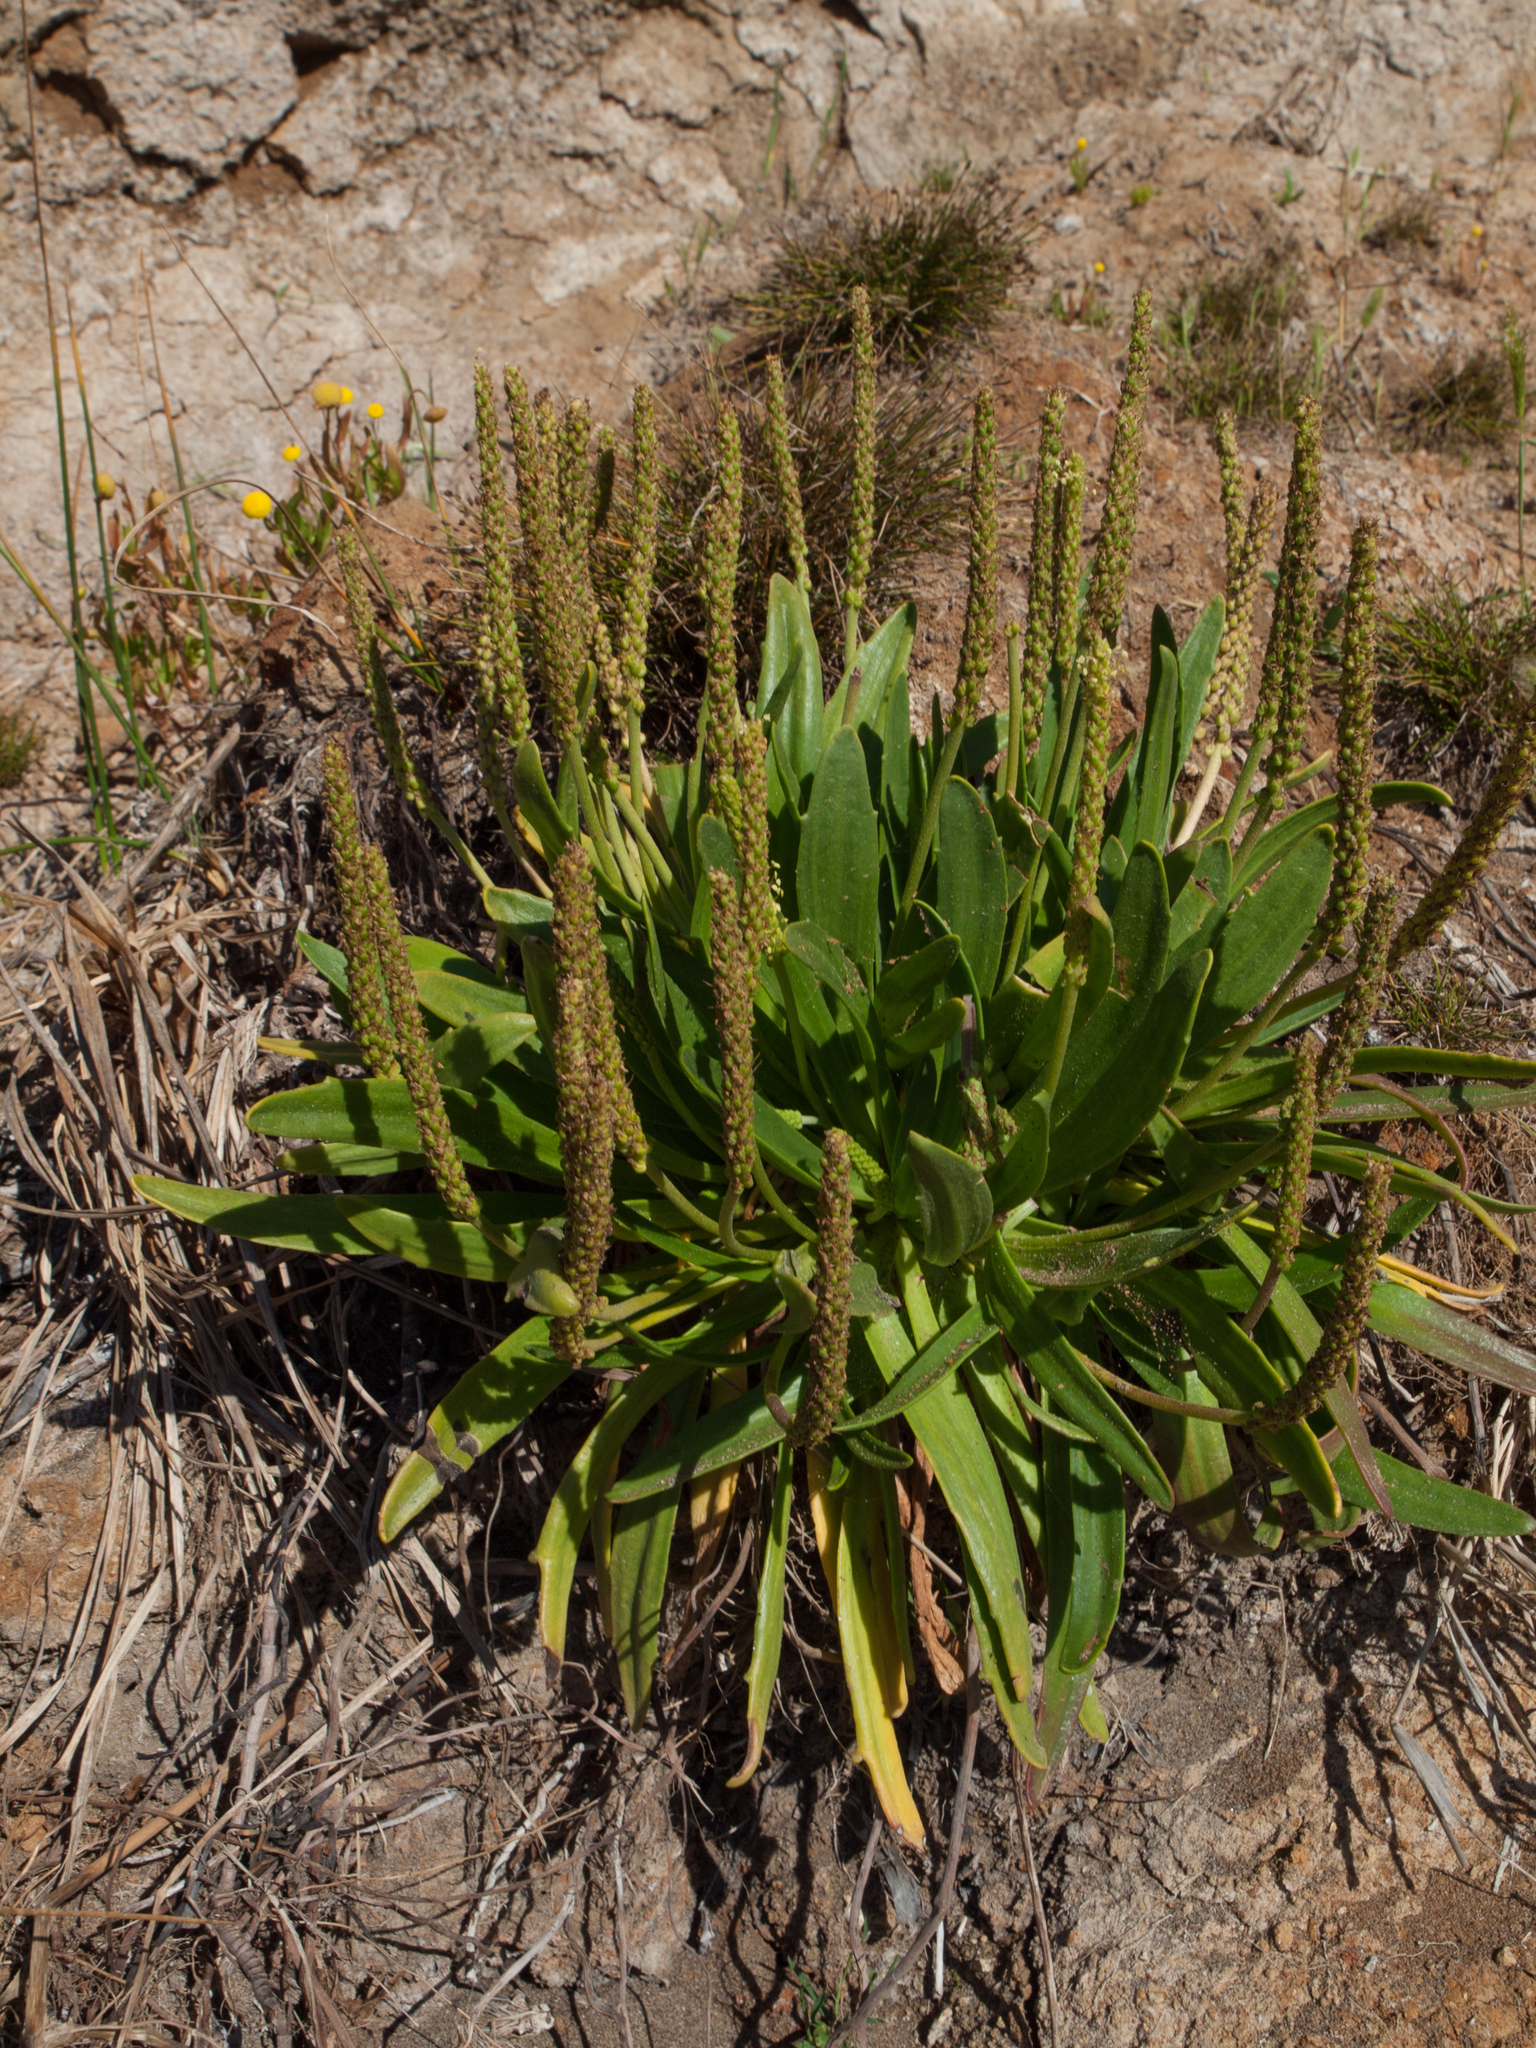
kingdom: Plantae
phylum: Tracheophyta
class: Magnoliopsida
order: Lamiales
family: Plantaginaceae
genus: Plantago
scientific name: Plantago maritima
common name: Sea plantain
